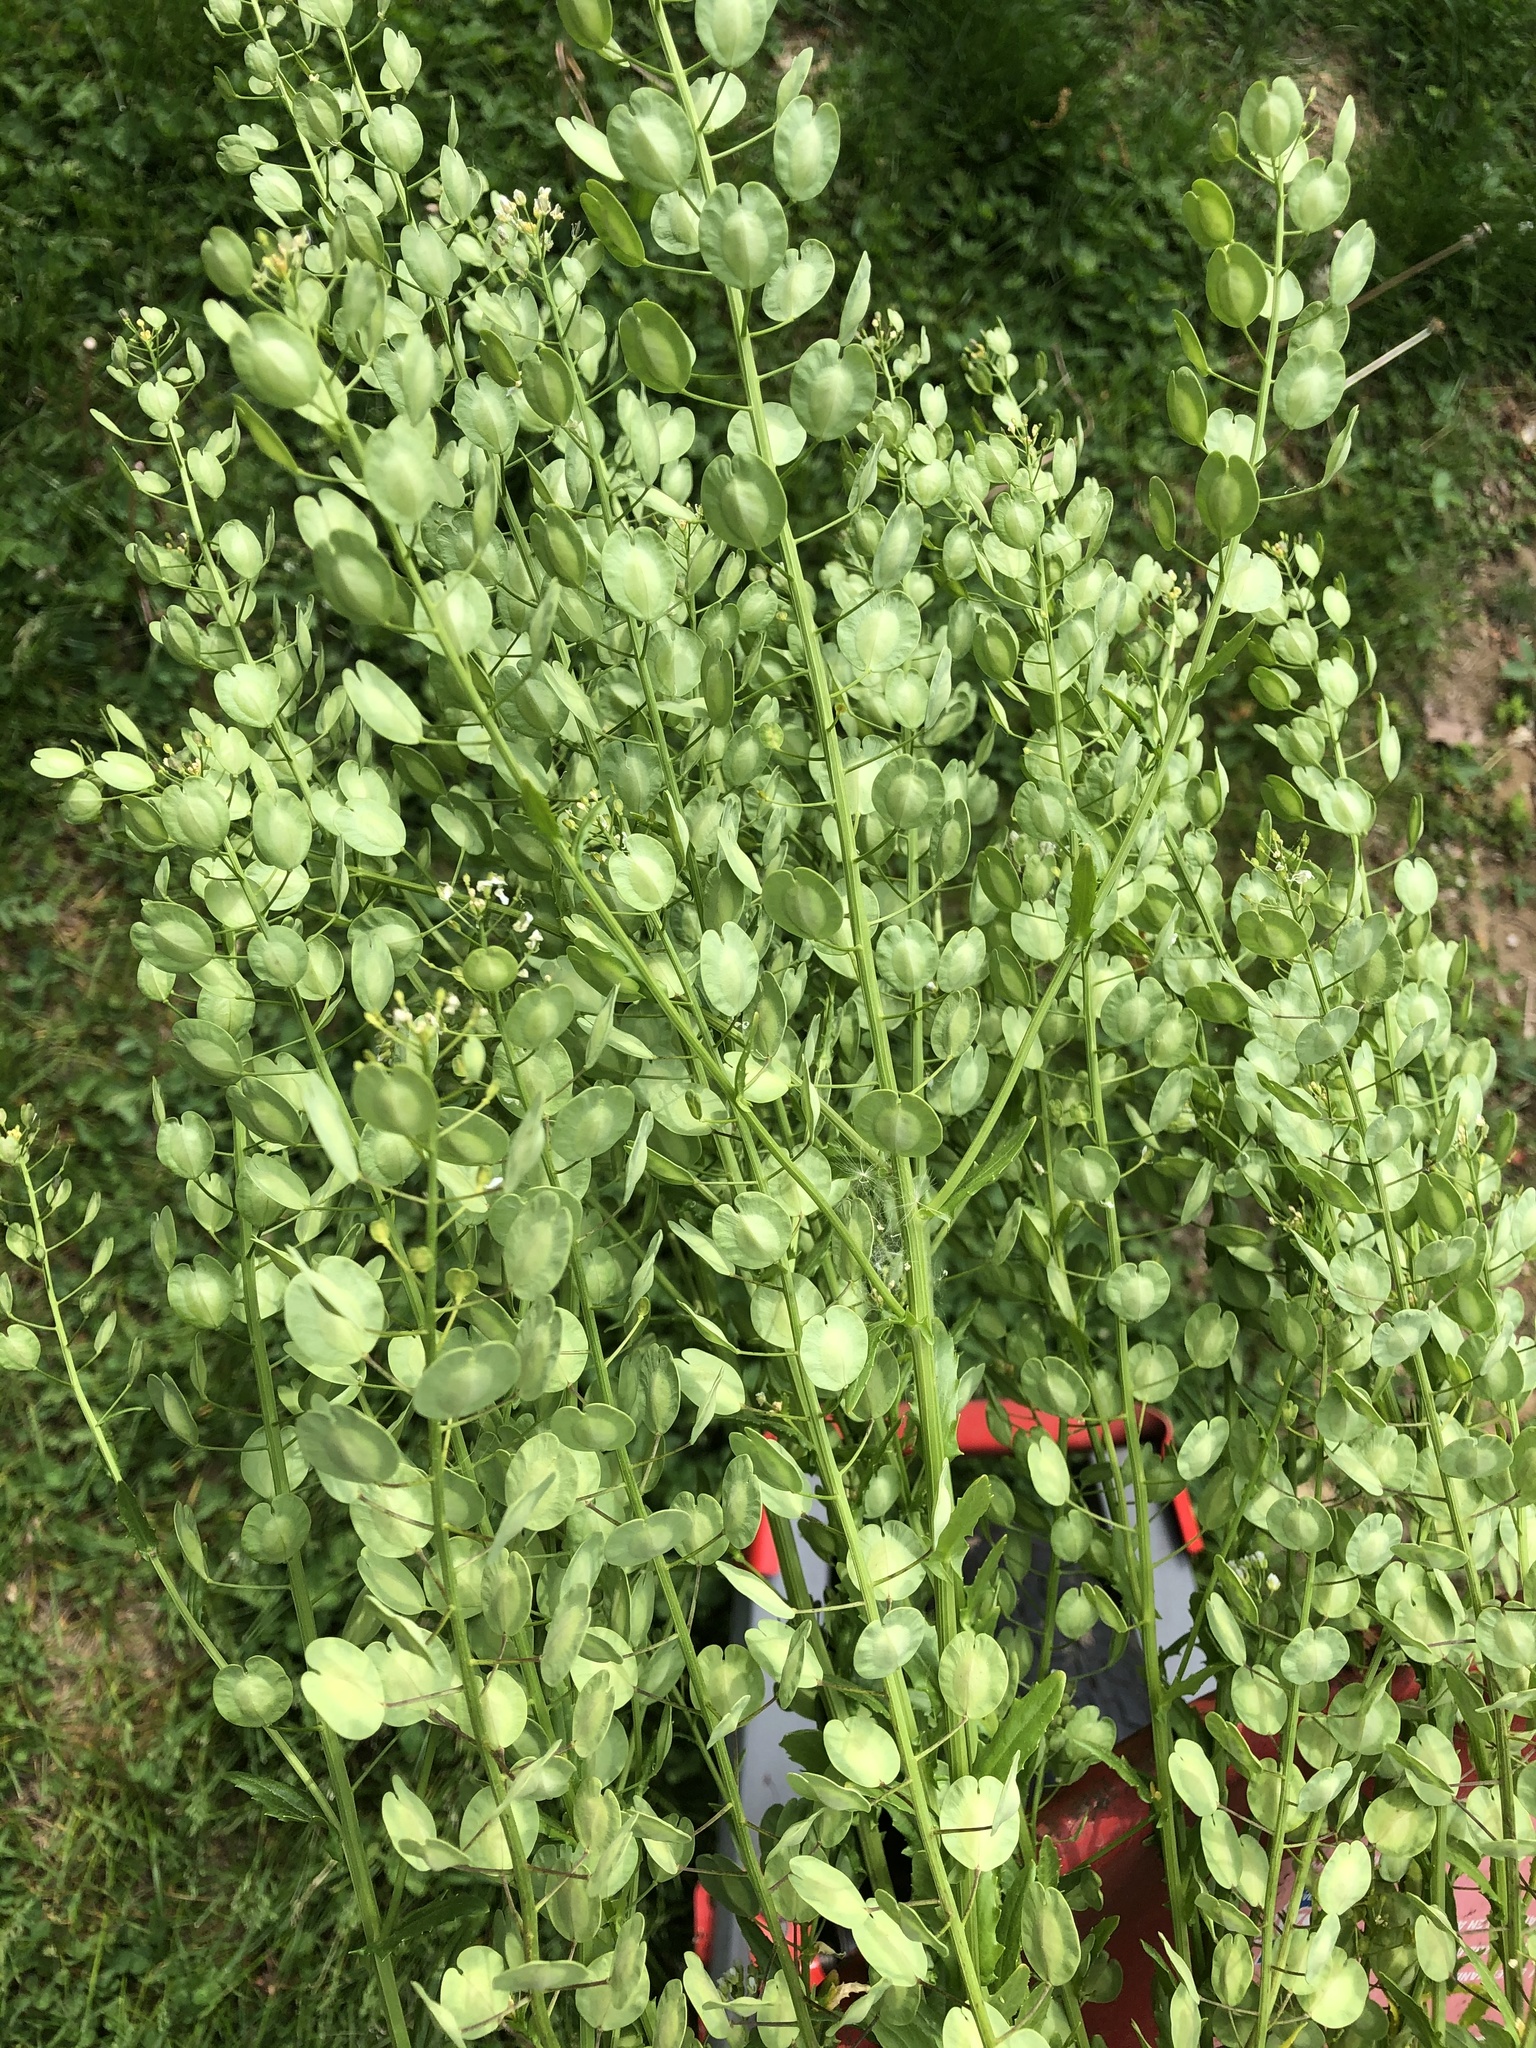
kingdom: Plantae
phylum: Tracheophyta
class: Magnoliopsida
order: Brassicales
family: Brassicaceae
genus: Thlaspi
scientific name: Thlaspi arvense
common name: Field pennycress
